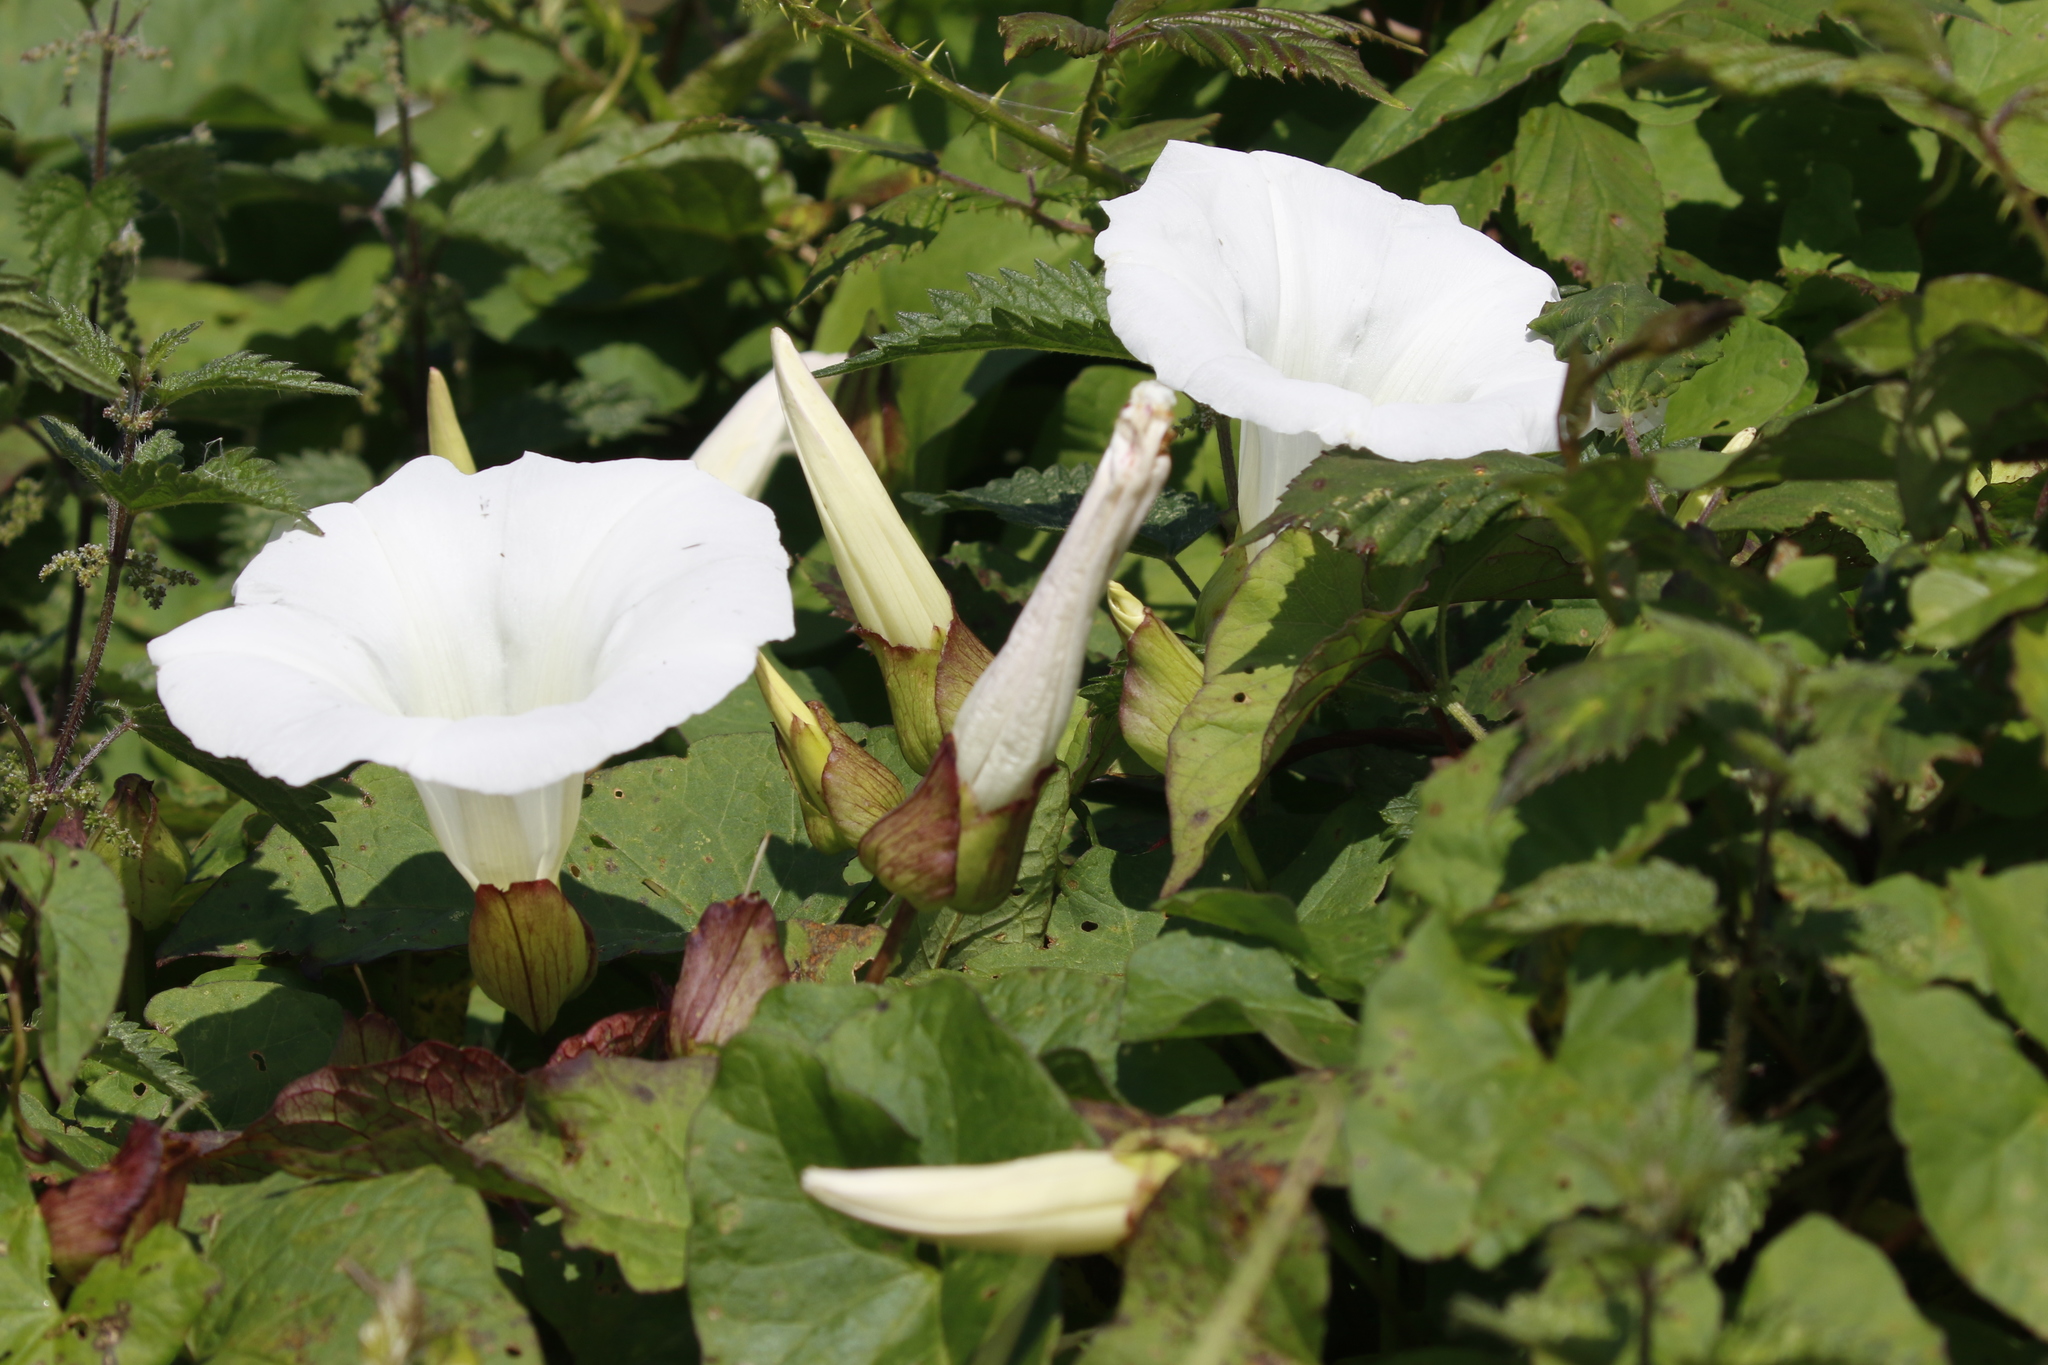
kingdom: Plantae
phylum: Tracheophyta
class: Magnoliopsida
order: Solanales
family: Convolvulaceae
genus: Calystegia
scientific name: Calystegia silvatica
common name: Large bindweed
